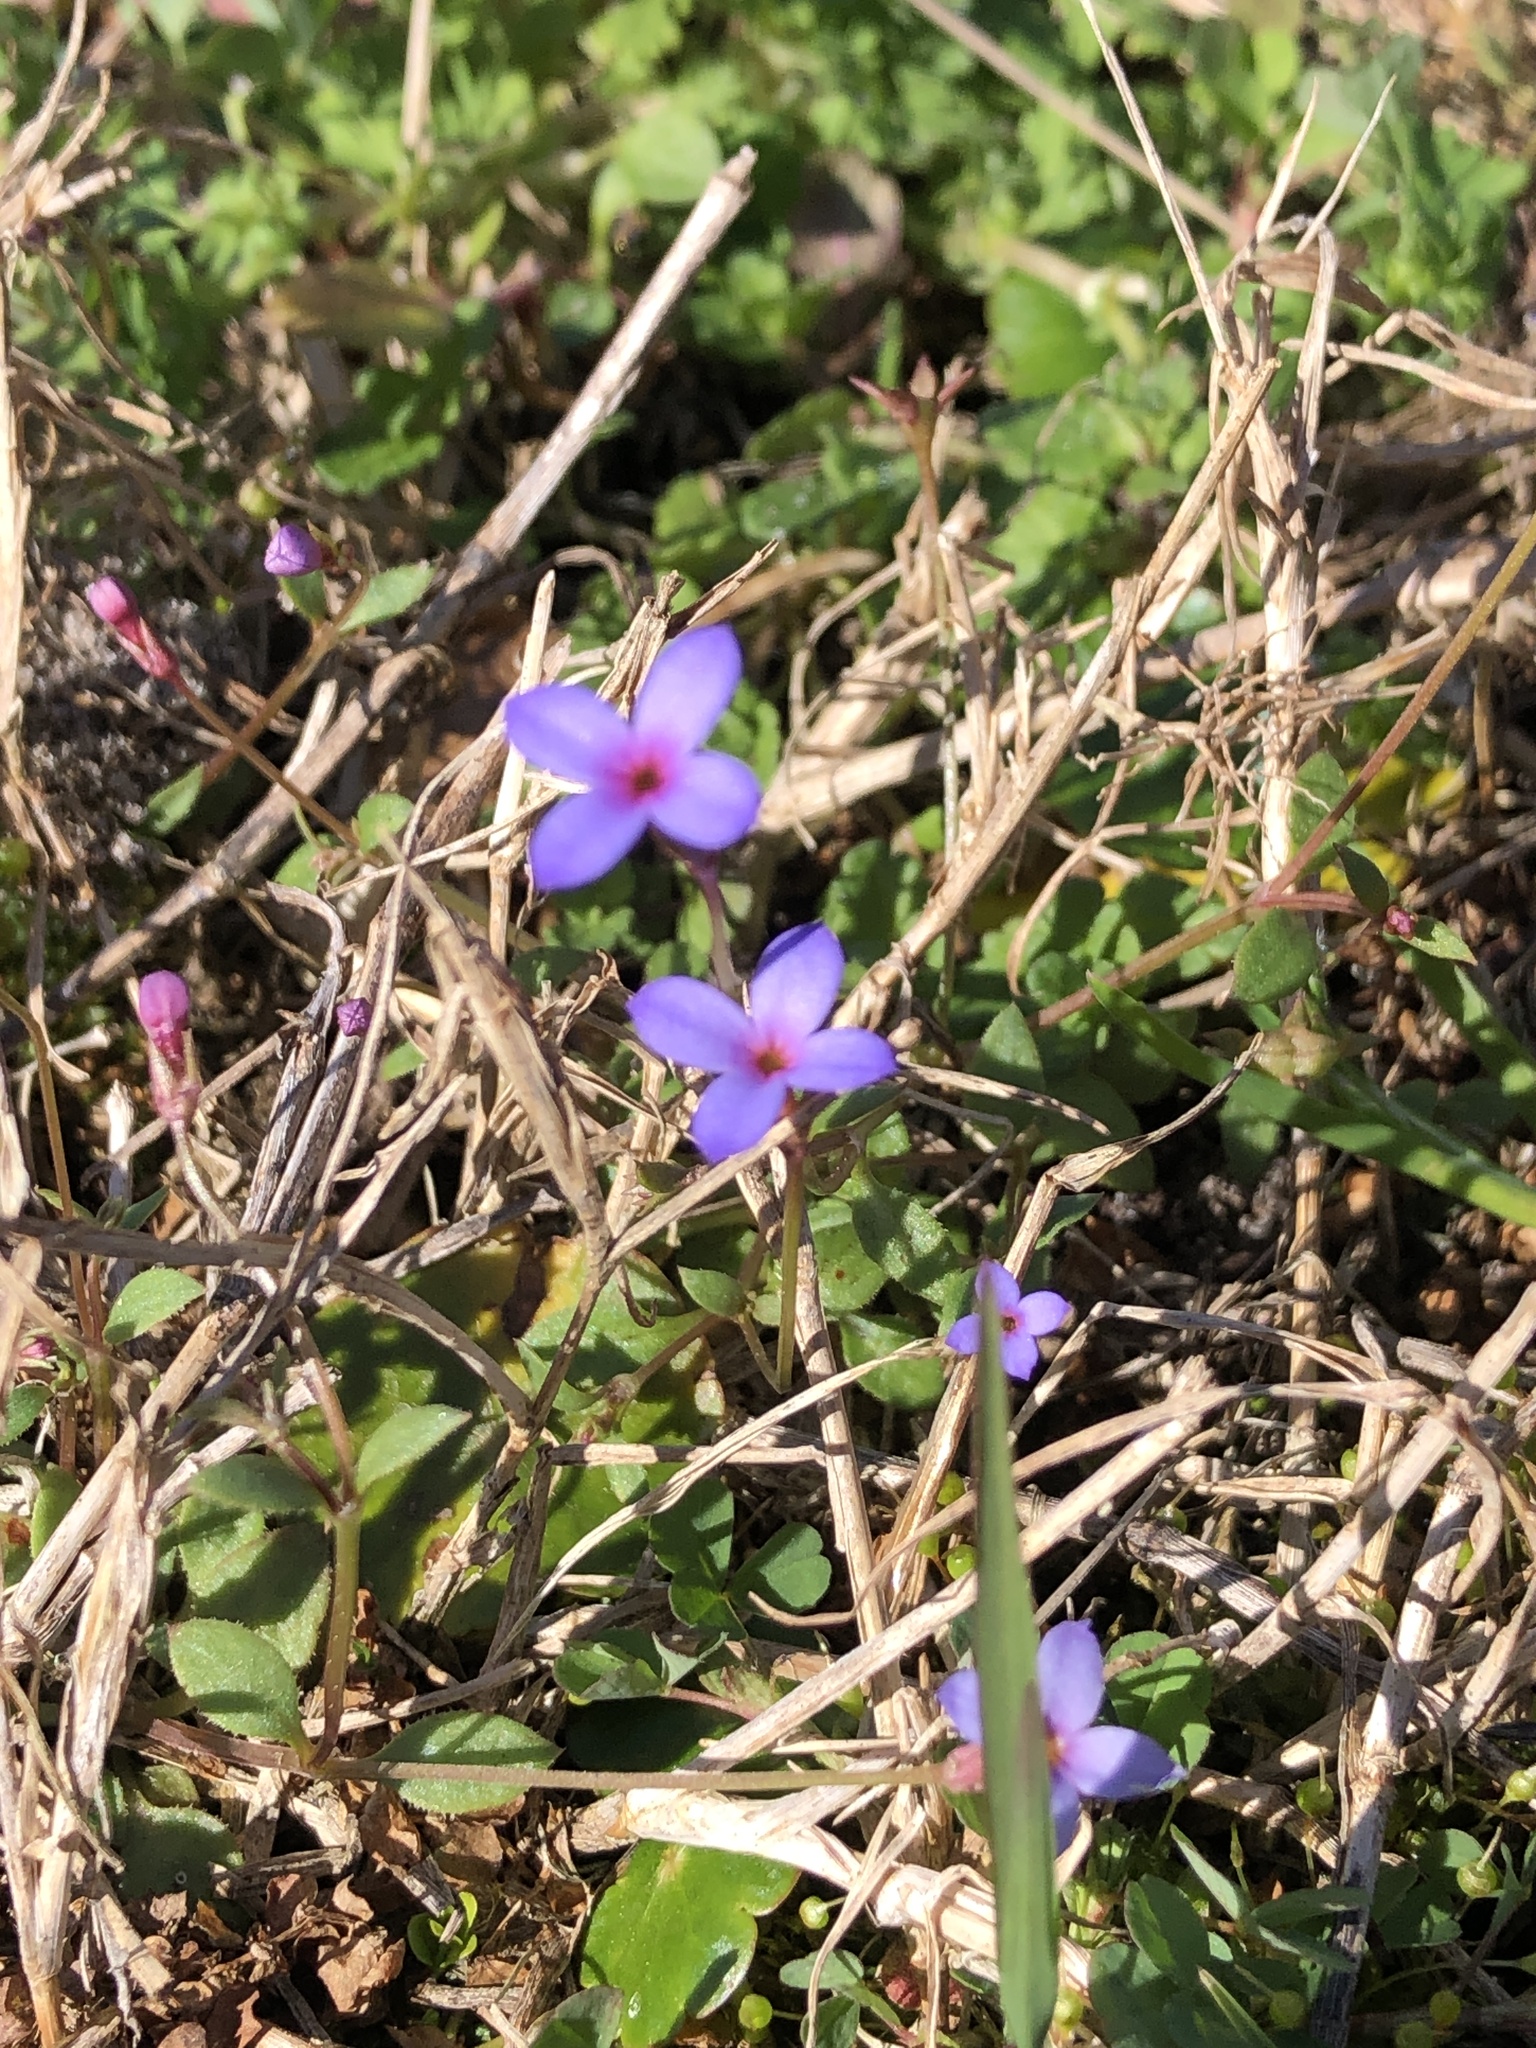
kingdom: Plantae
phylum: Tracheophyta
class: Magnoliopsida
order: Gentianales
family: Rubiaceae
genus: Houstonia
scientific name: Houstonia pusilla
